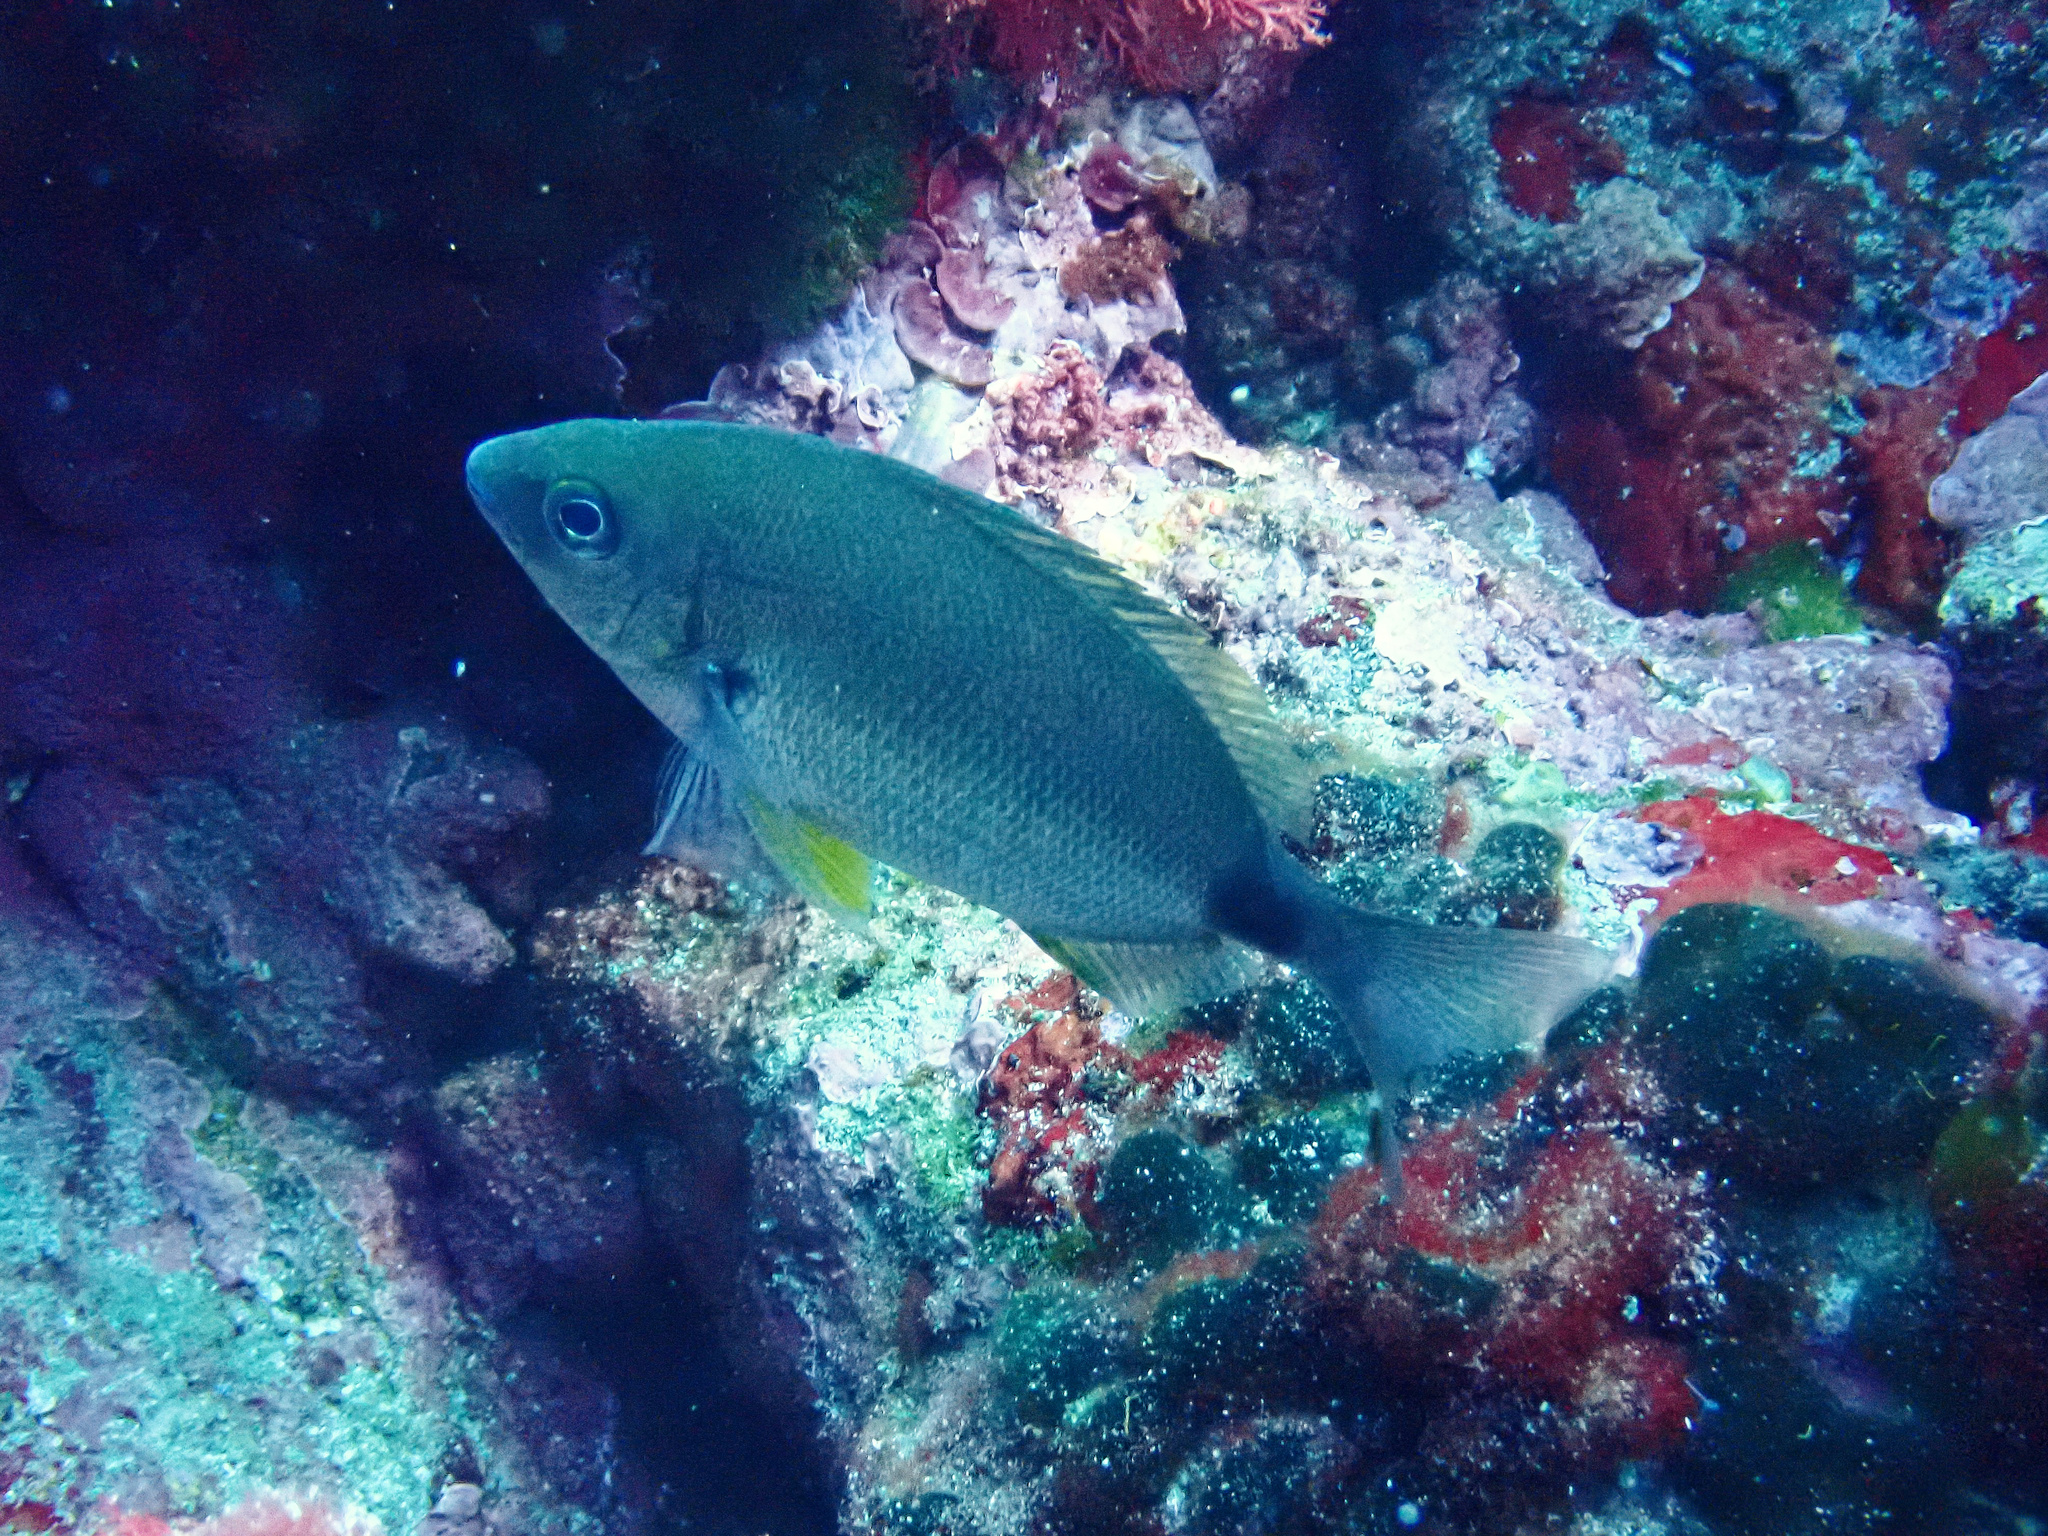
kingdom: Animalia
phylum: Chordata
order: Perciformes
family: Sparidae
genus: Diplodus
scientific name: Diplodus annularis
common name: Annular seabream
